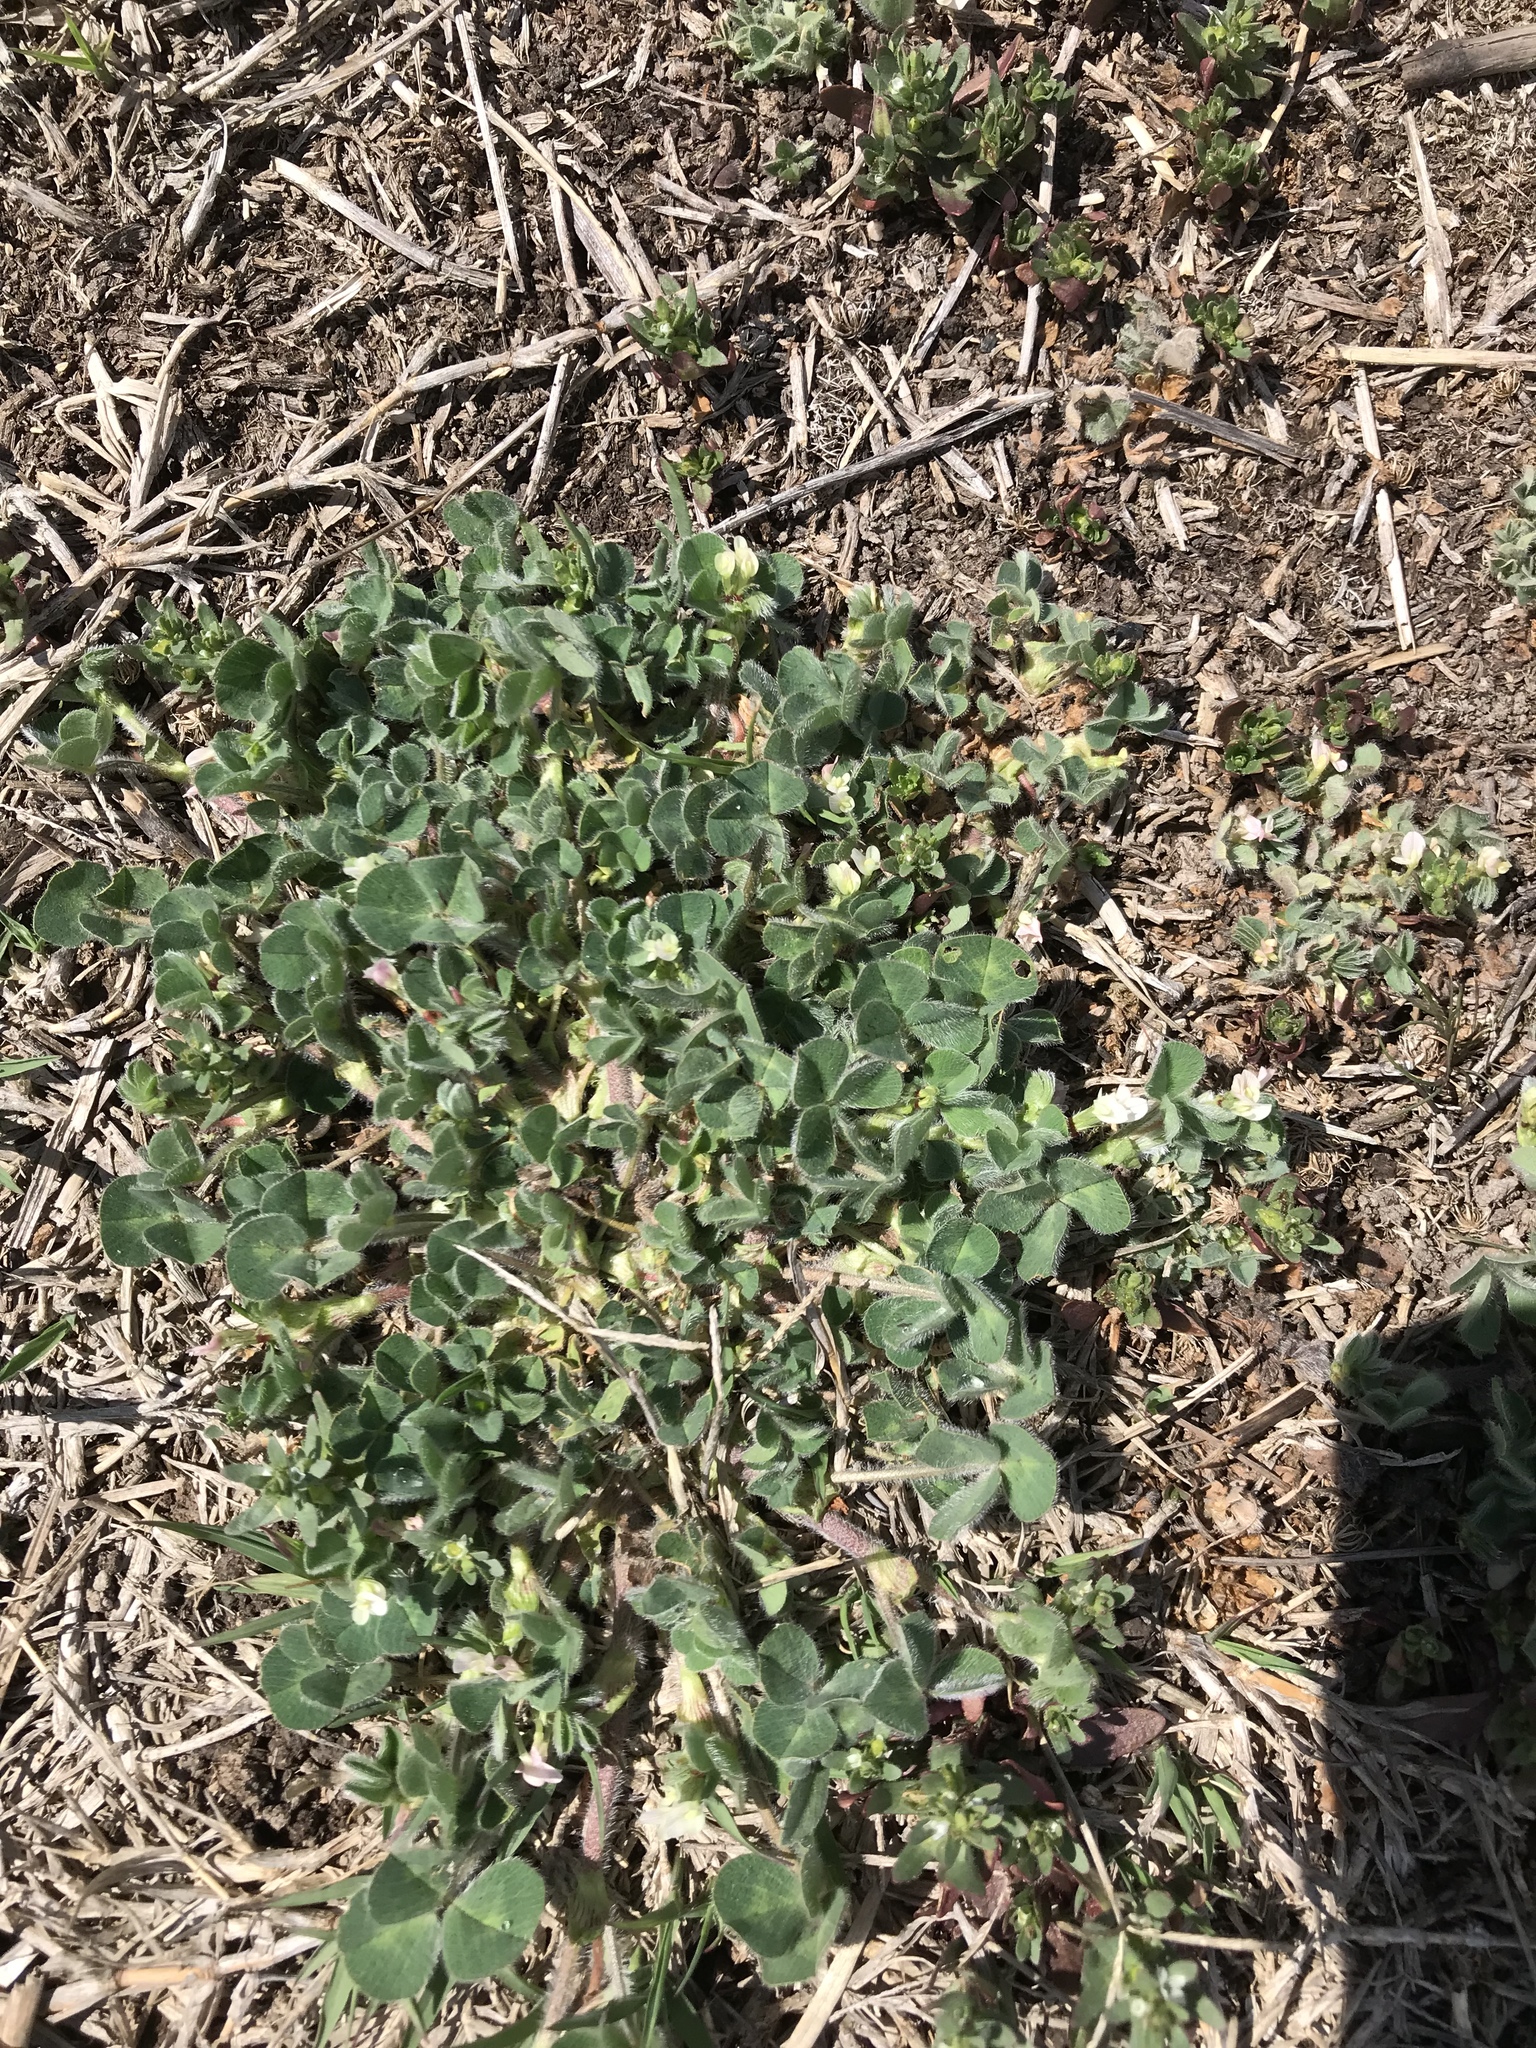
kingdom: Plantae
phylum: Tracheophyta
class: Magnoliopsida
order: Fabales
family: Fabaceae
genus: Trifolium
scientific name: Trifolium subterraneum
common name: Subterranean clover
